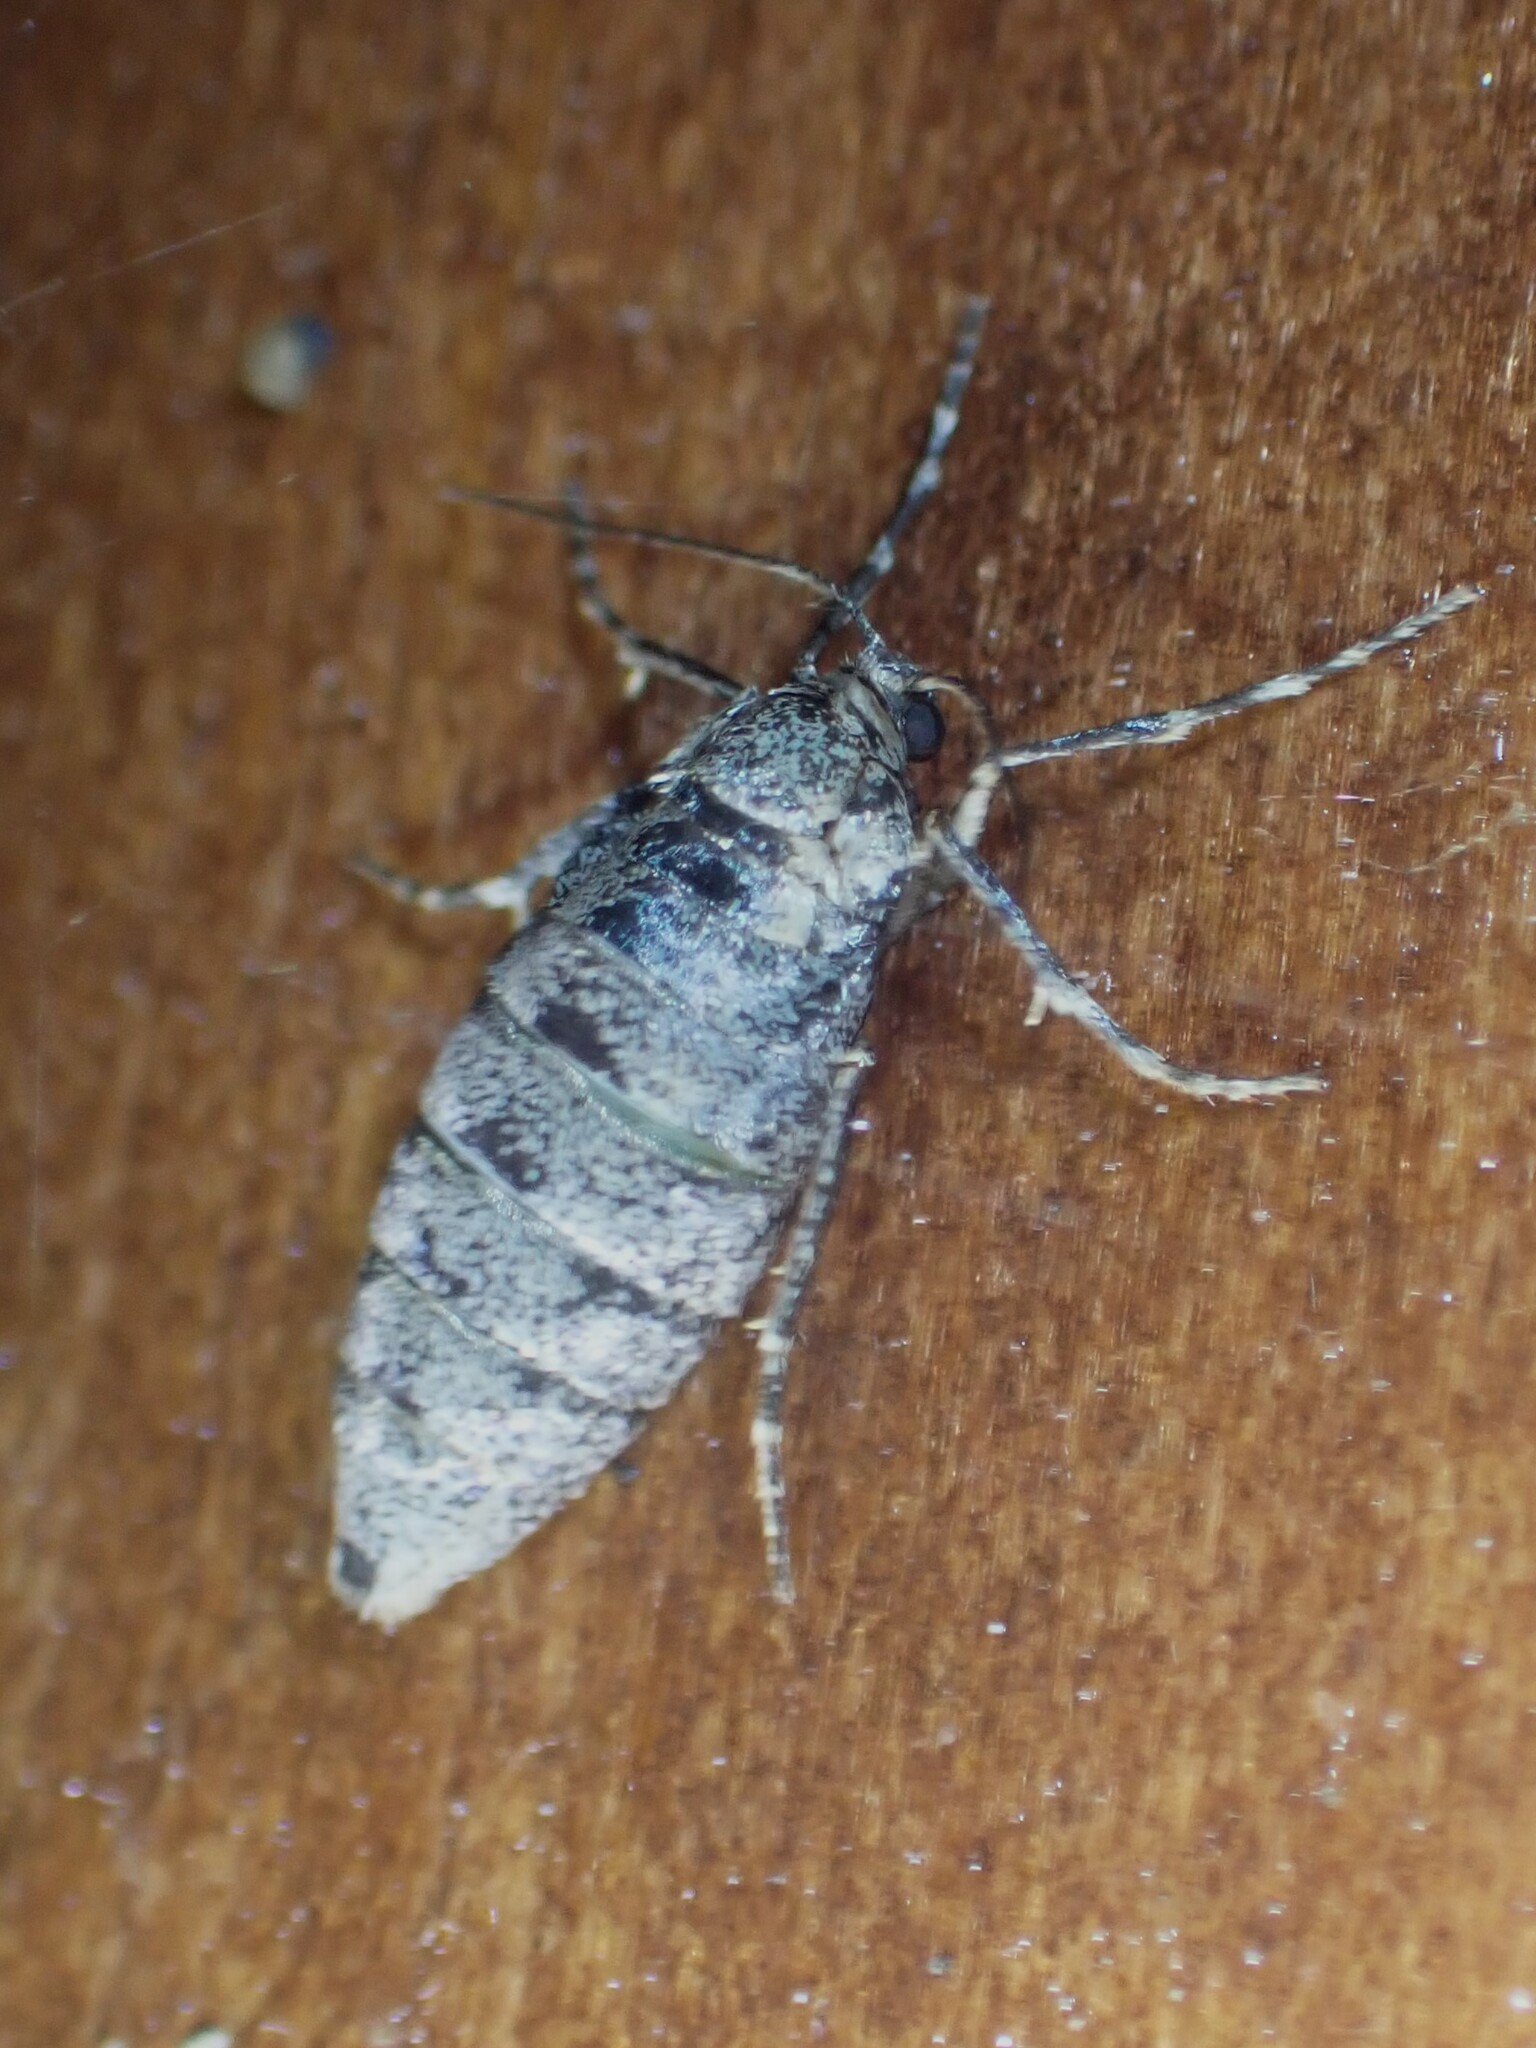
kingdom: Animalia
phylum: Arthropoda
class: Insecta
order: Lepidoptera
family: Geometridae
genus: Operophtera
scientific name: Operophtera bruceata
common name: Bruce spanworm
